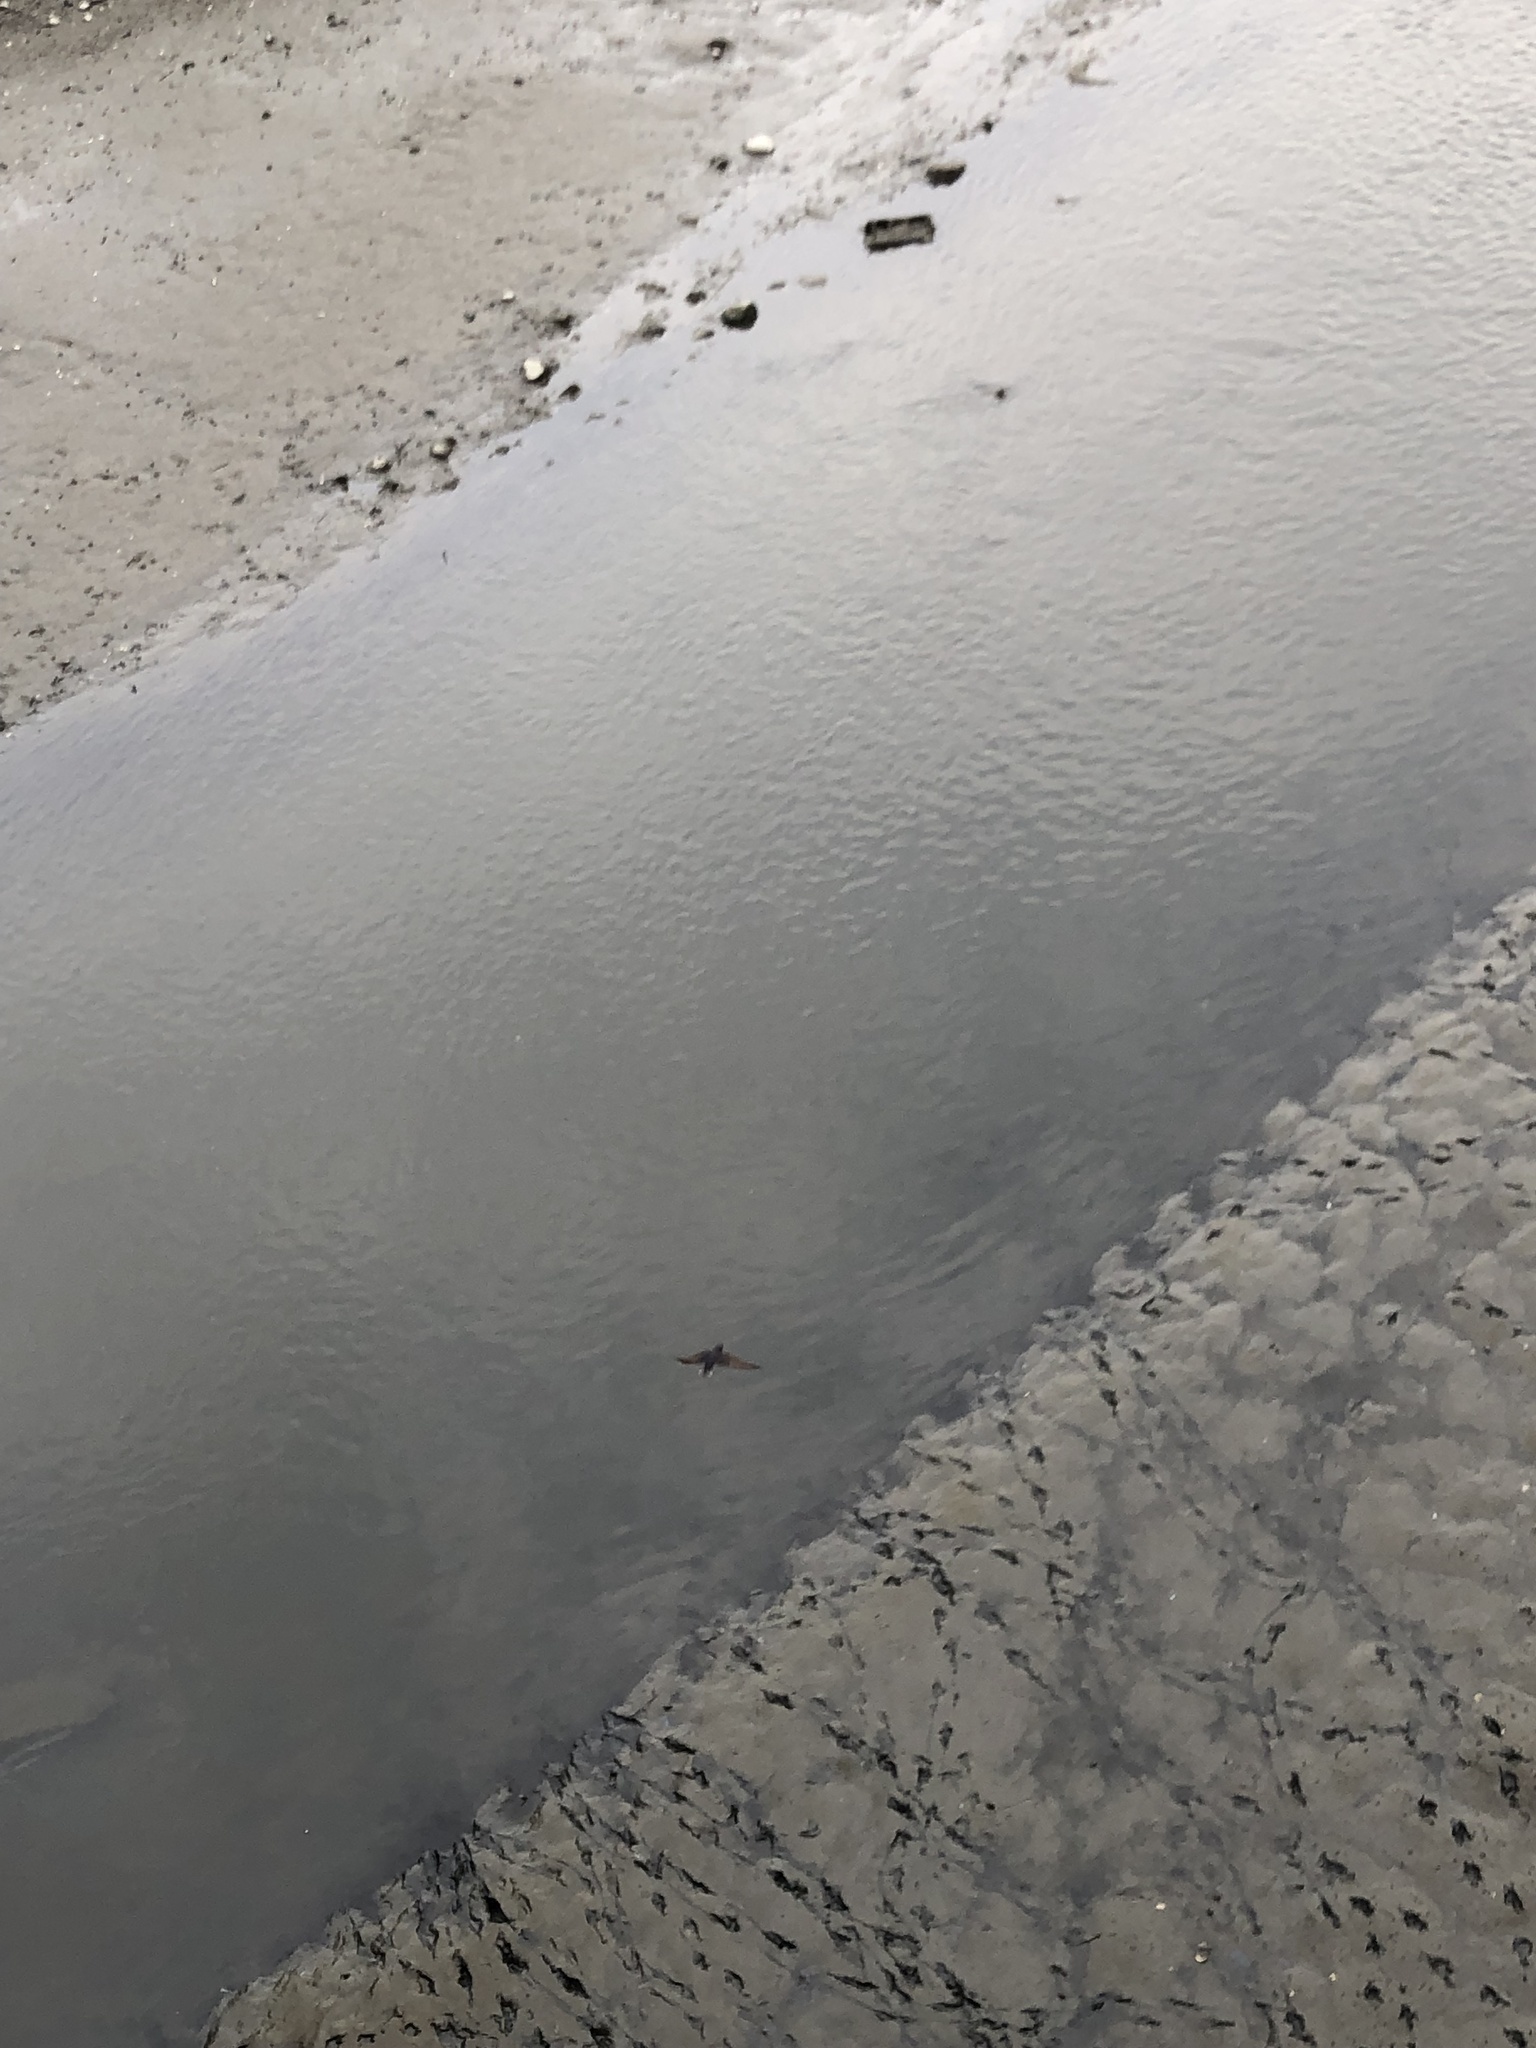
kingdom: Animalia
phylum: Chordata
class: Aves
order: Passeriformes
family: Hirundinidae
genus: Hirundo
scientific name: Hirundo rustica
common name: Barn swallow
